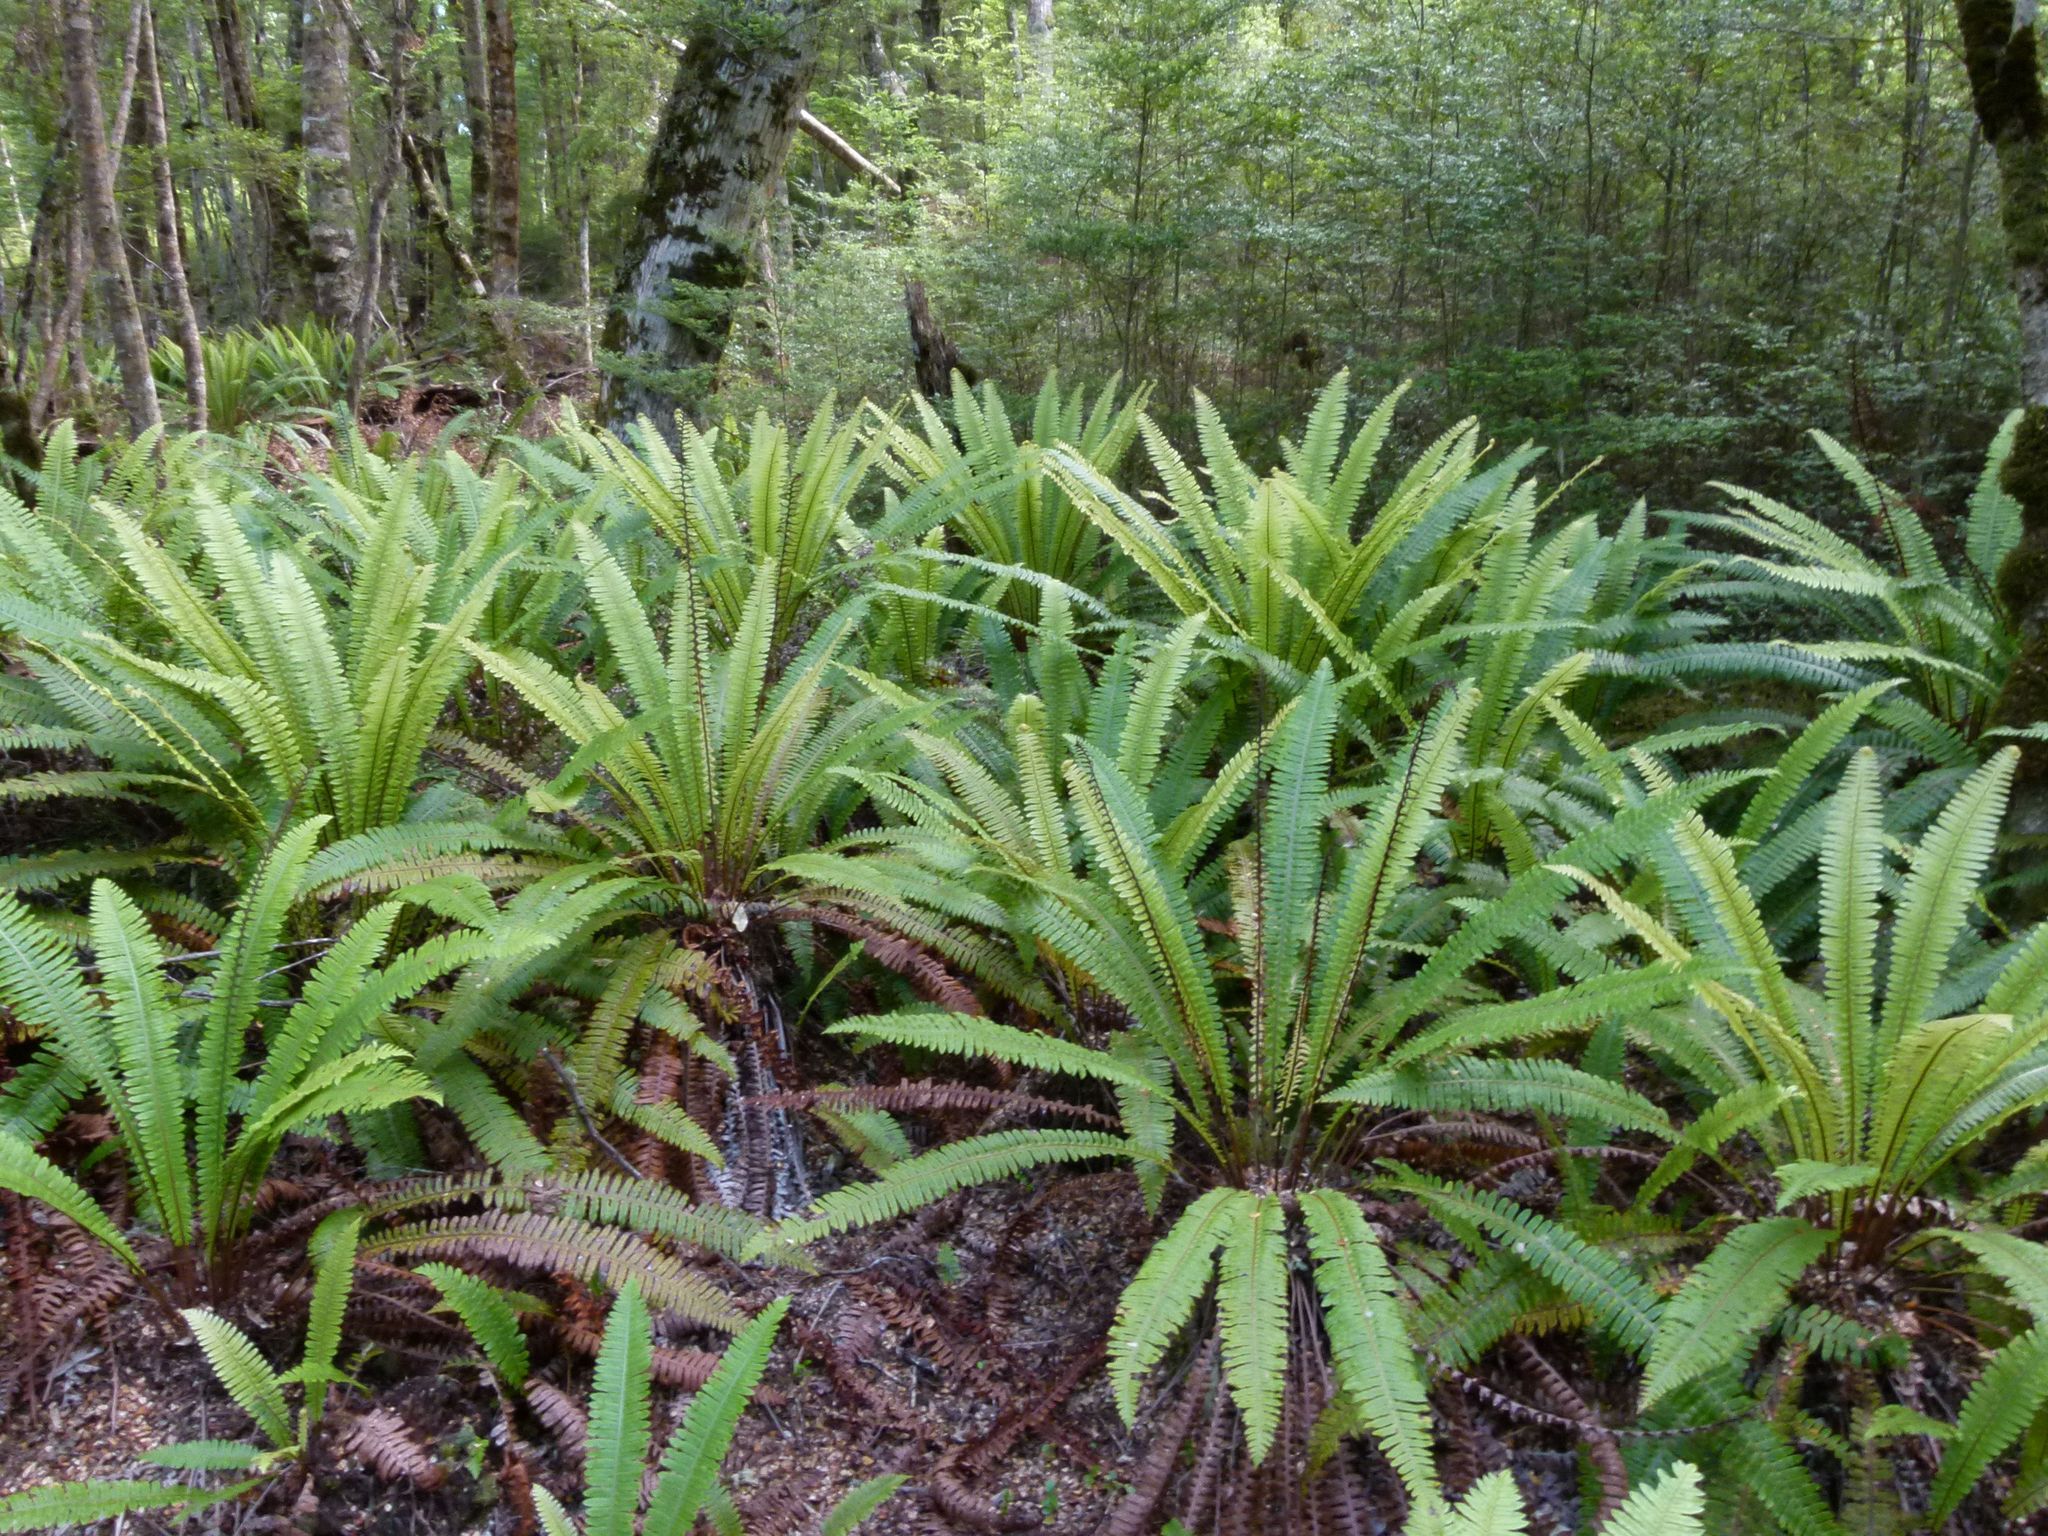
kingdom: Plantae
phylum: Tracheophyta
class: Polypodiopsida
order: Polypodiales
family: Blechnaceae
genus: Lomaria
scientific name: Lomaria discolor
